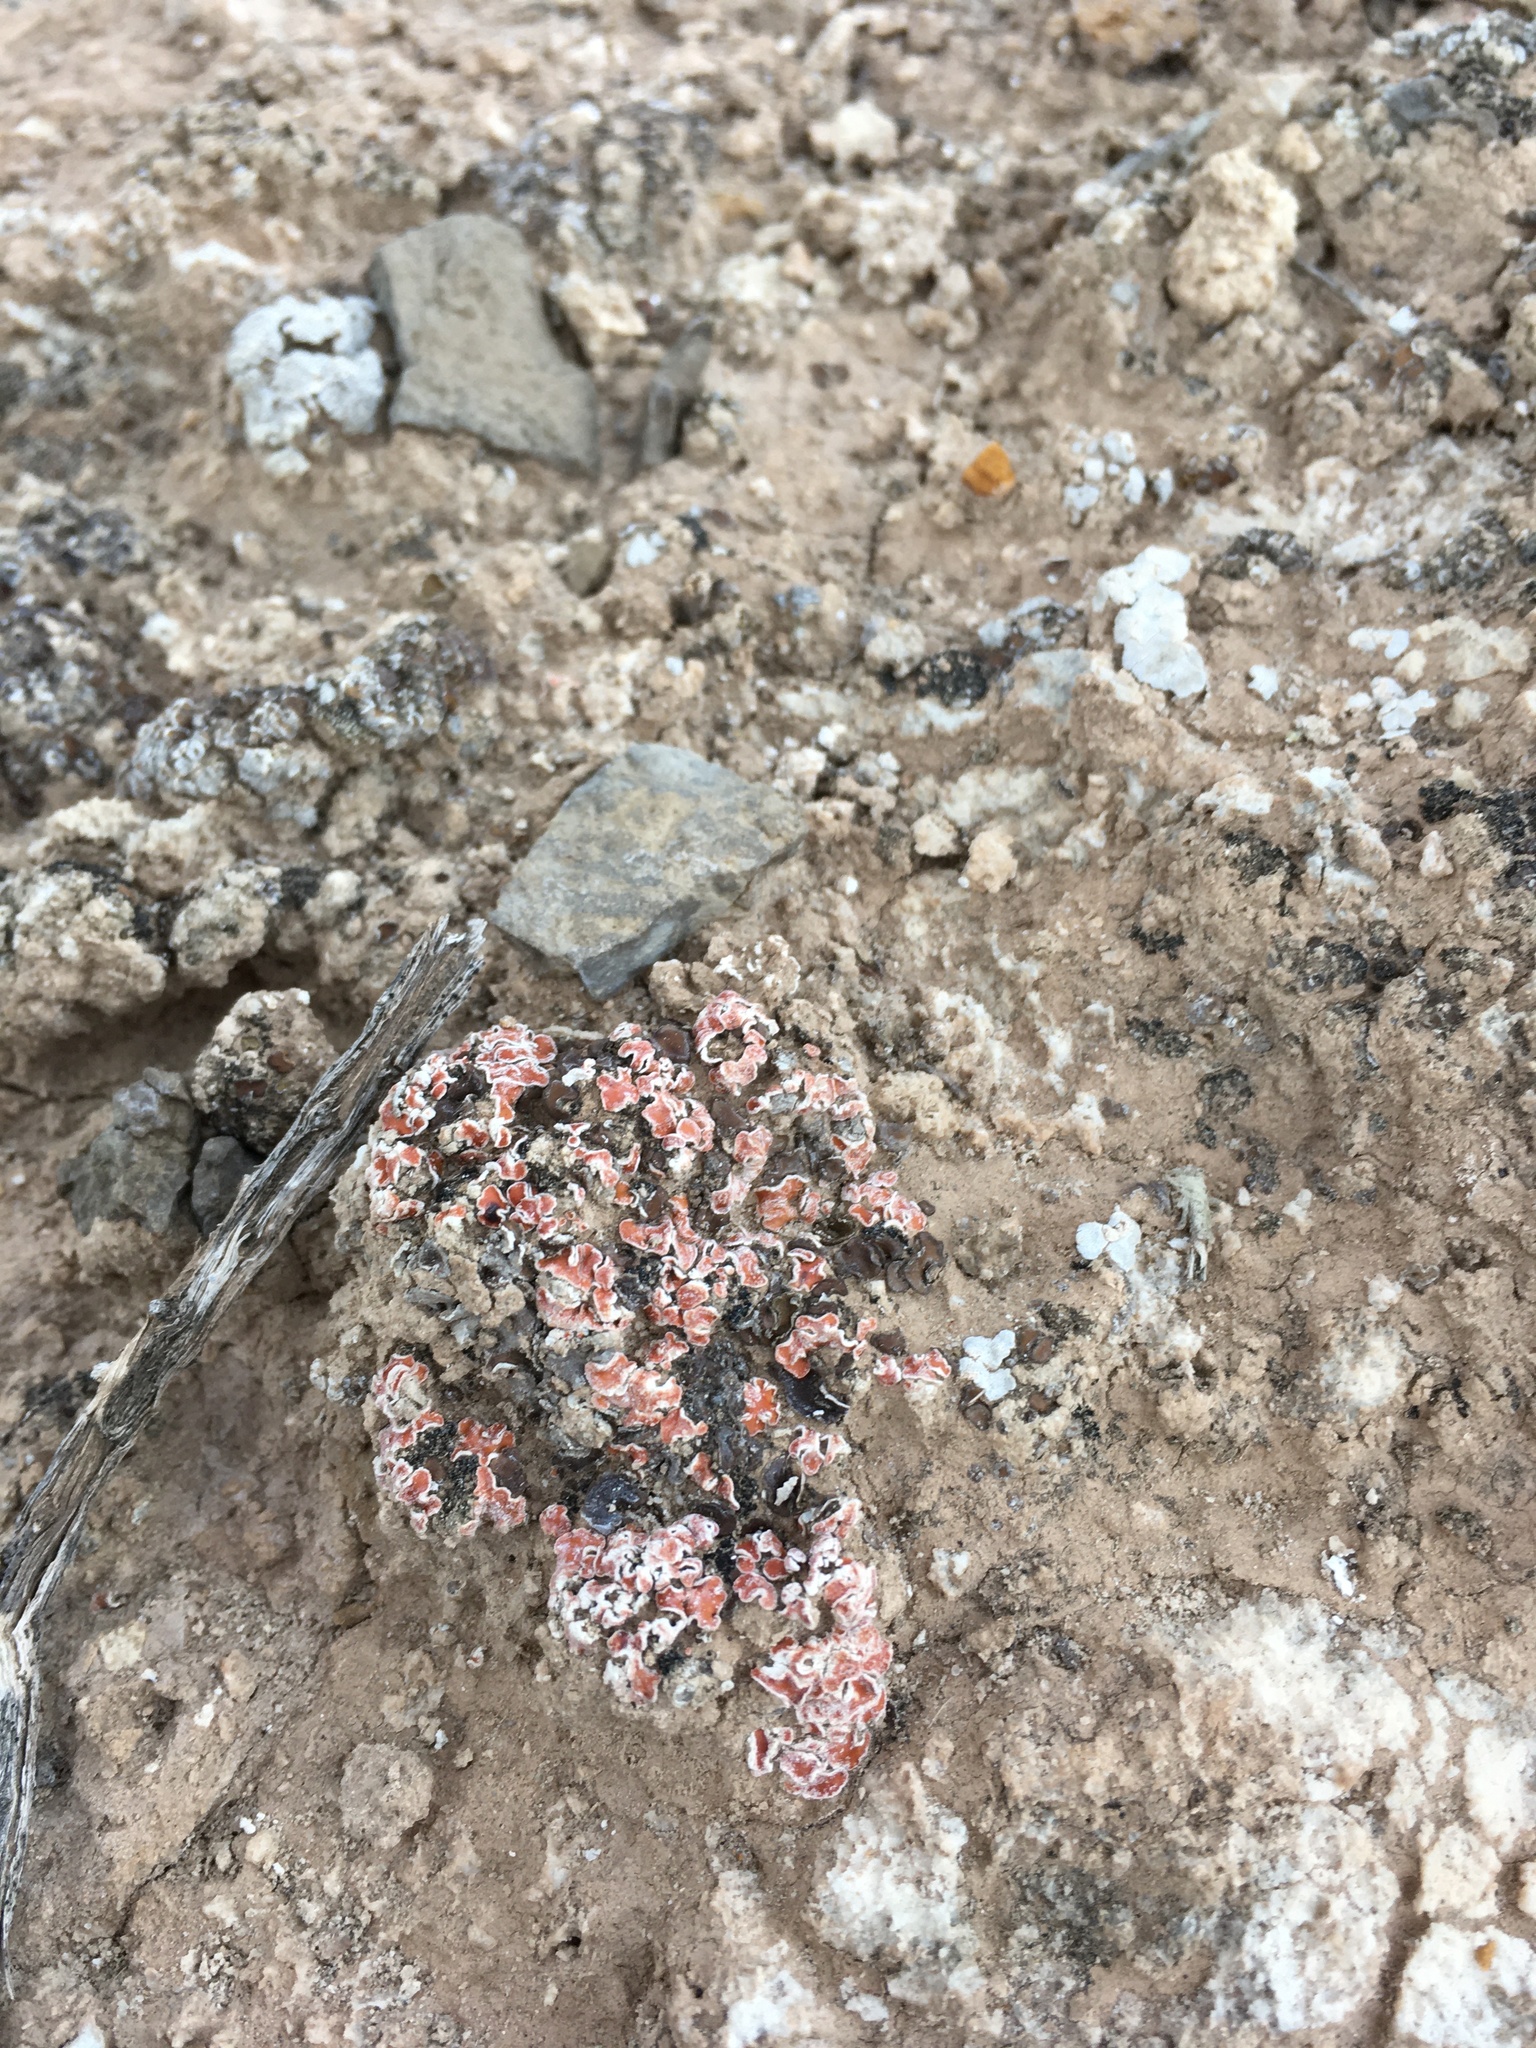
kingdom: Fungi
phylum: Ascomycota
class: Lecanoromycetes
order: Lecanorales
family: Psoraceae
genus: Psora
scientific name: Psora decipiens
